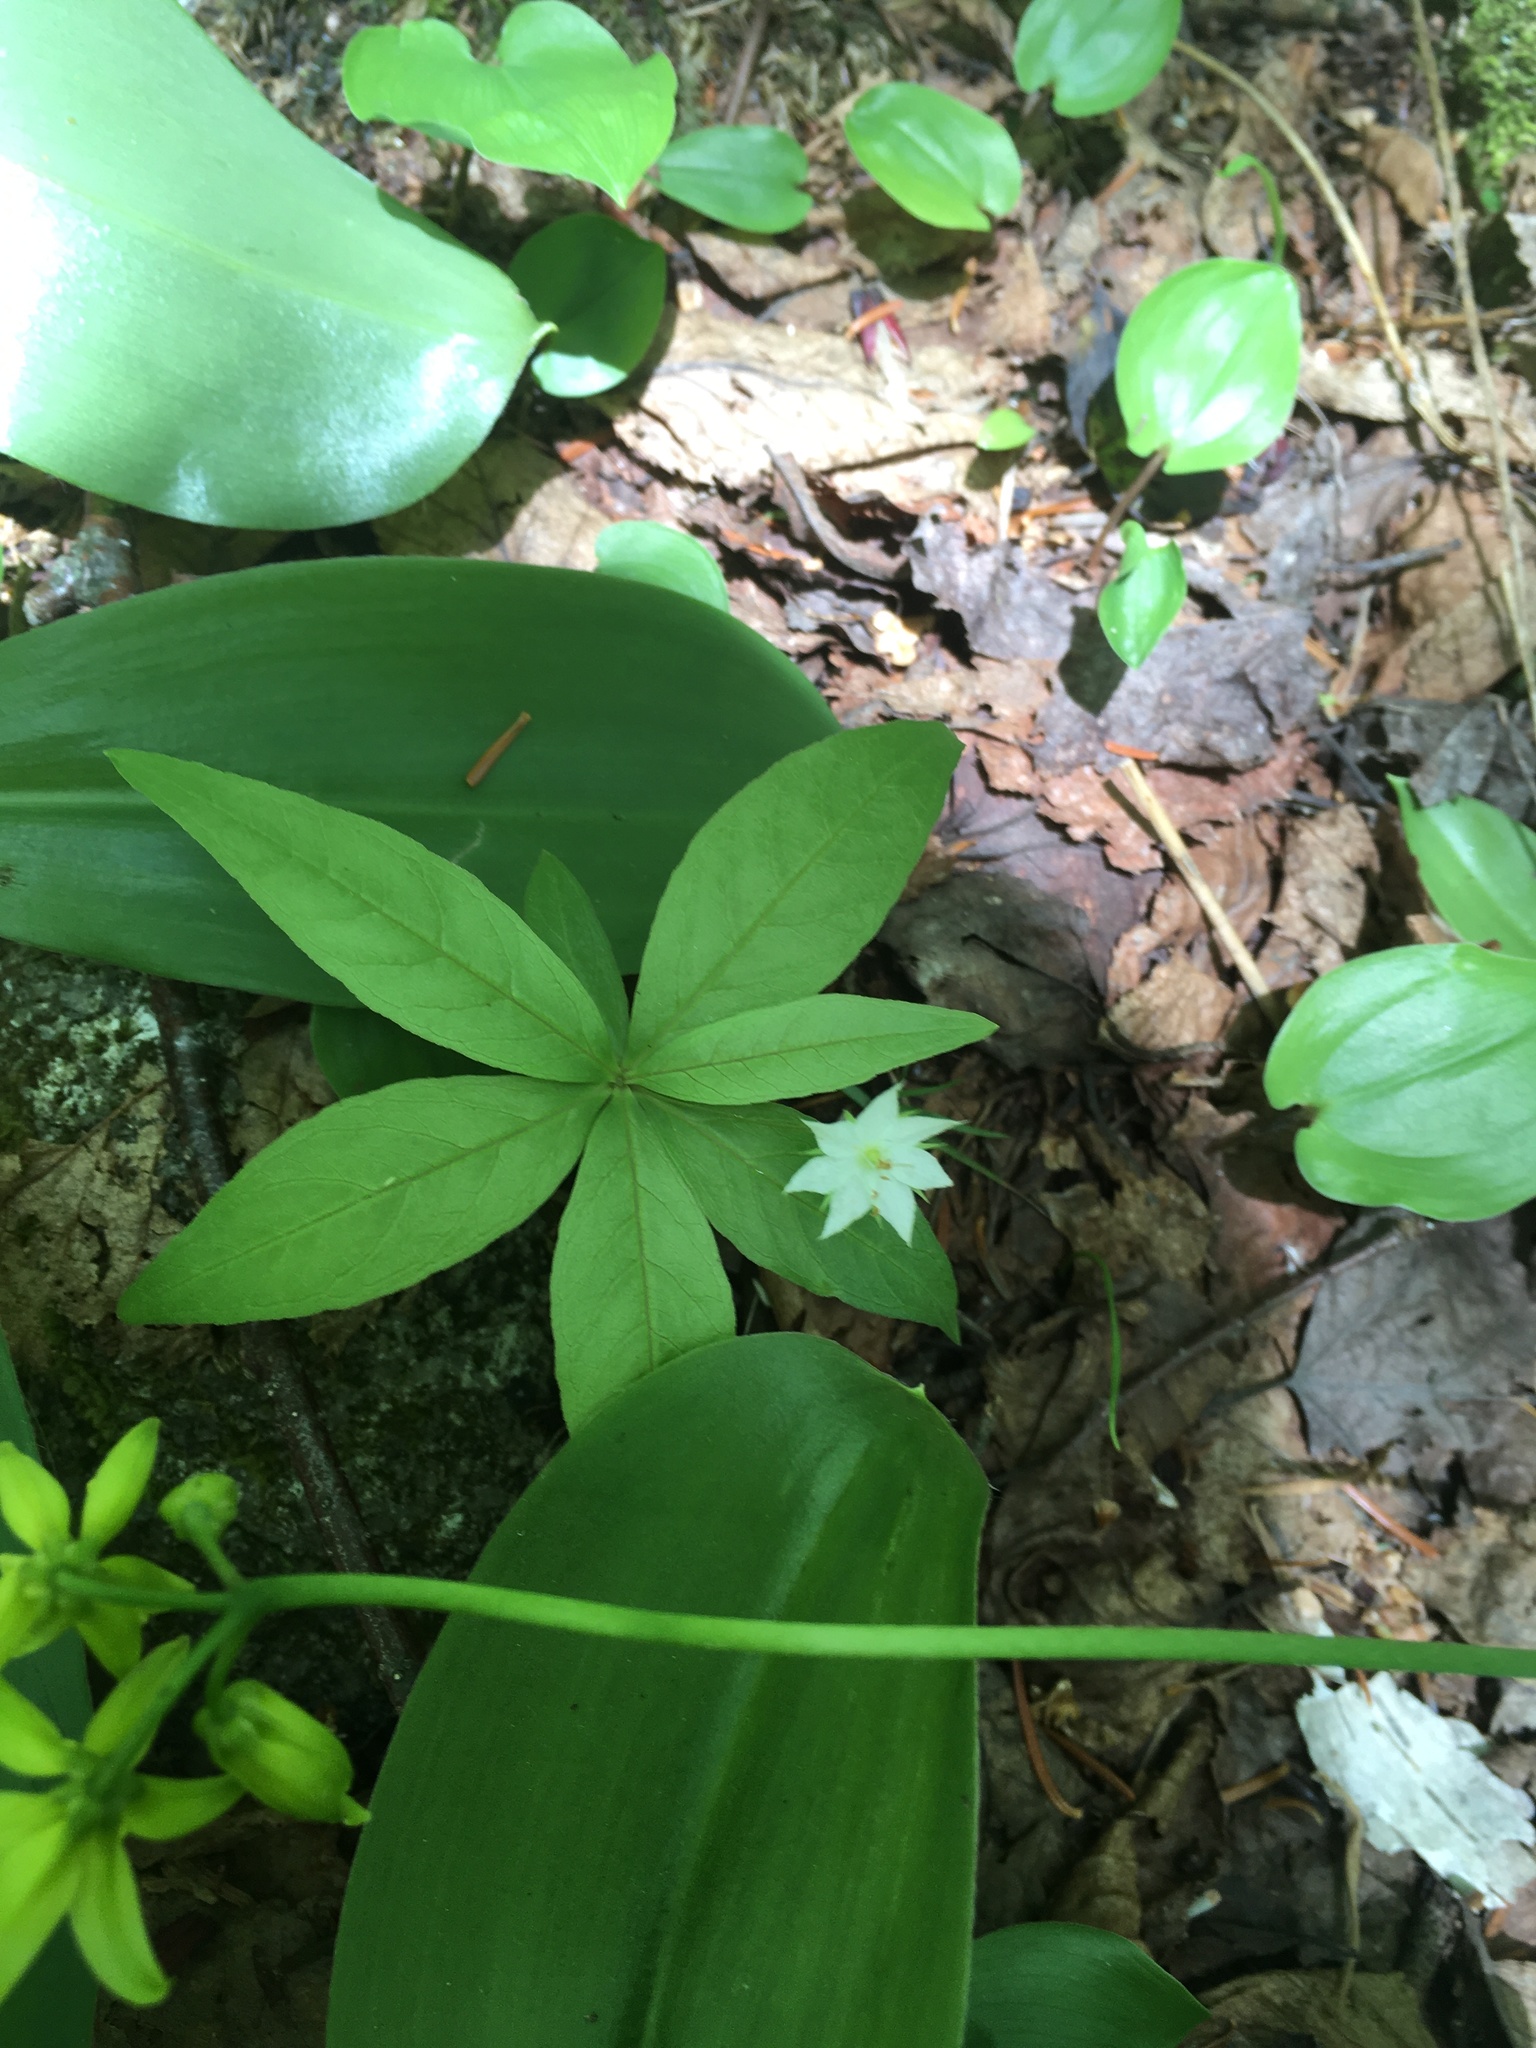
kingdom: Plantae
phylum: Tracheophyta
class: Magnoliopsida
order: Ericales
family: Primulaceae
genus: Lysimachia
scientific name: Lysimachia borealis
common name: American starflower
